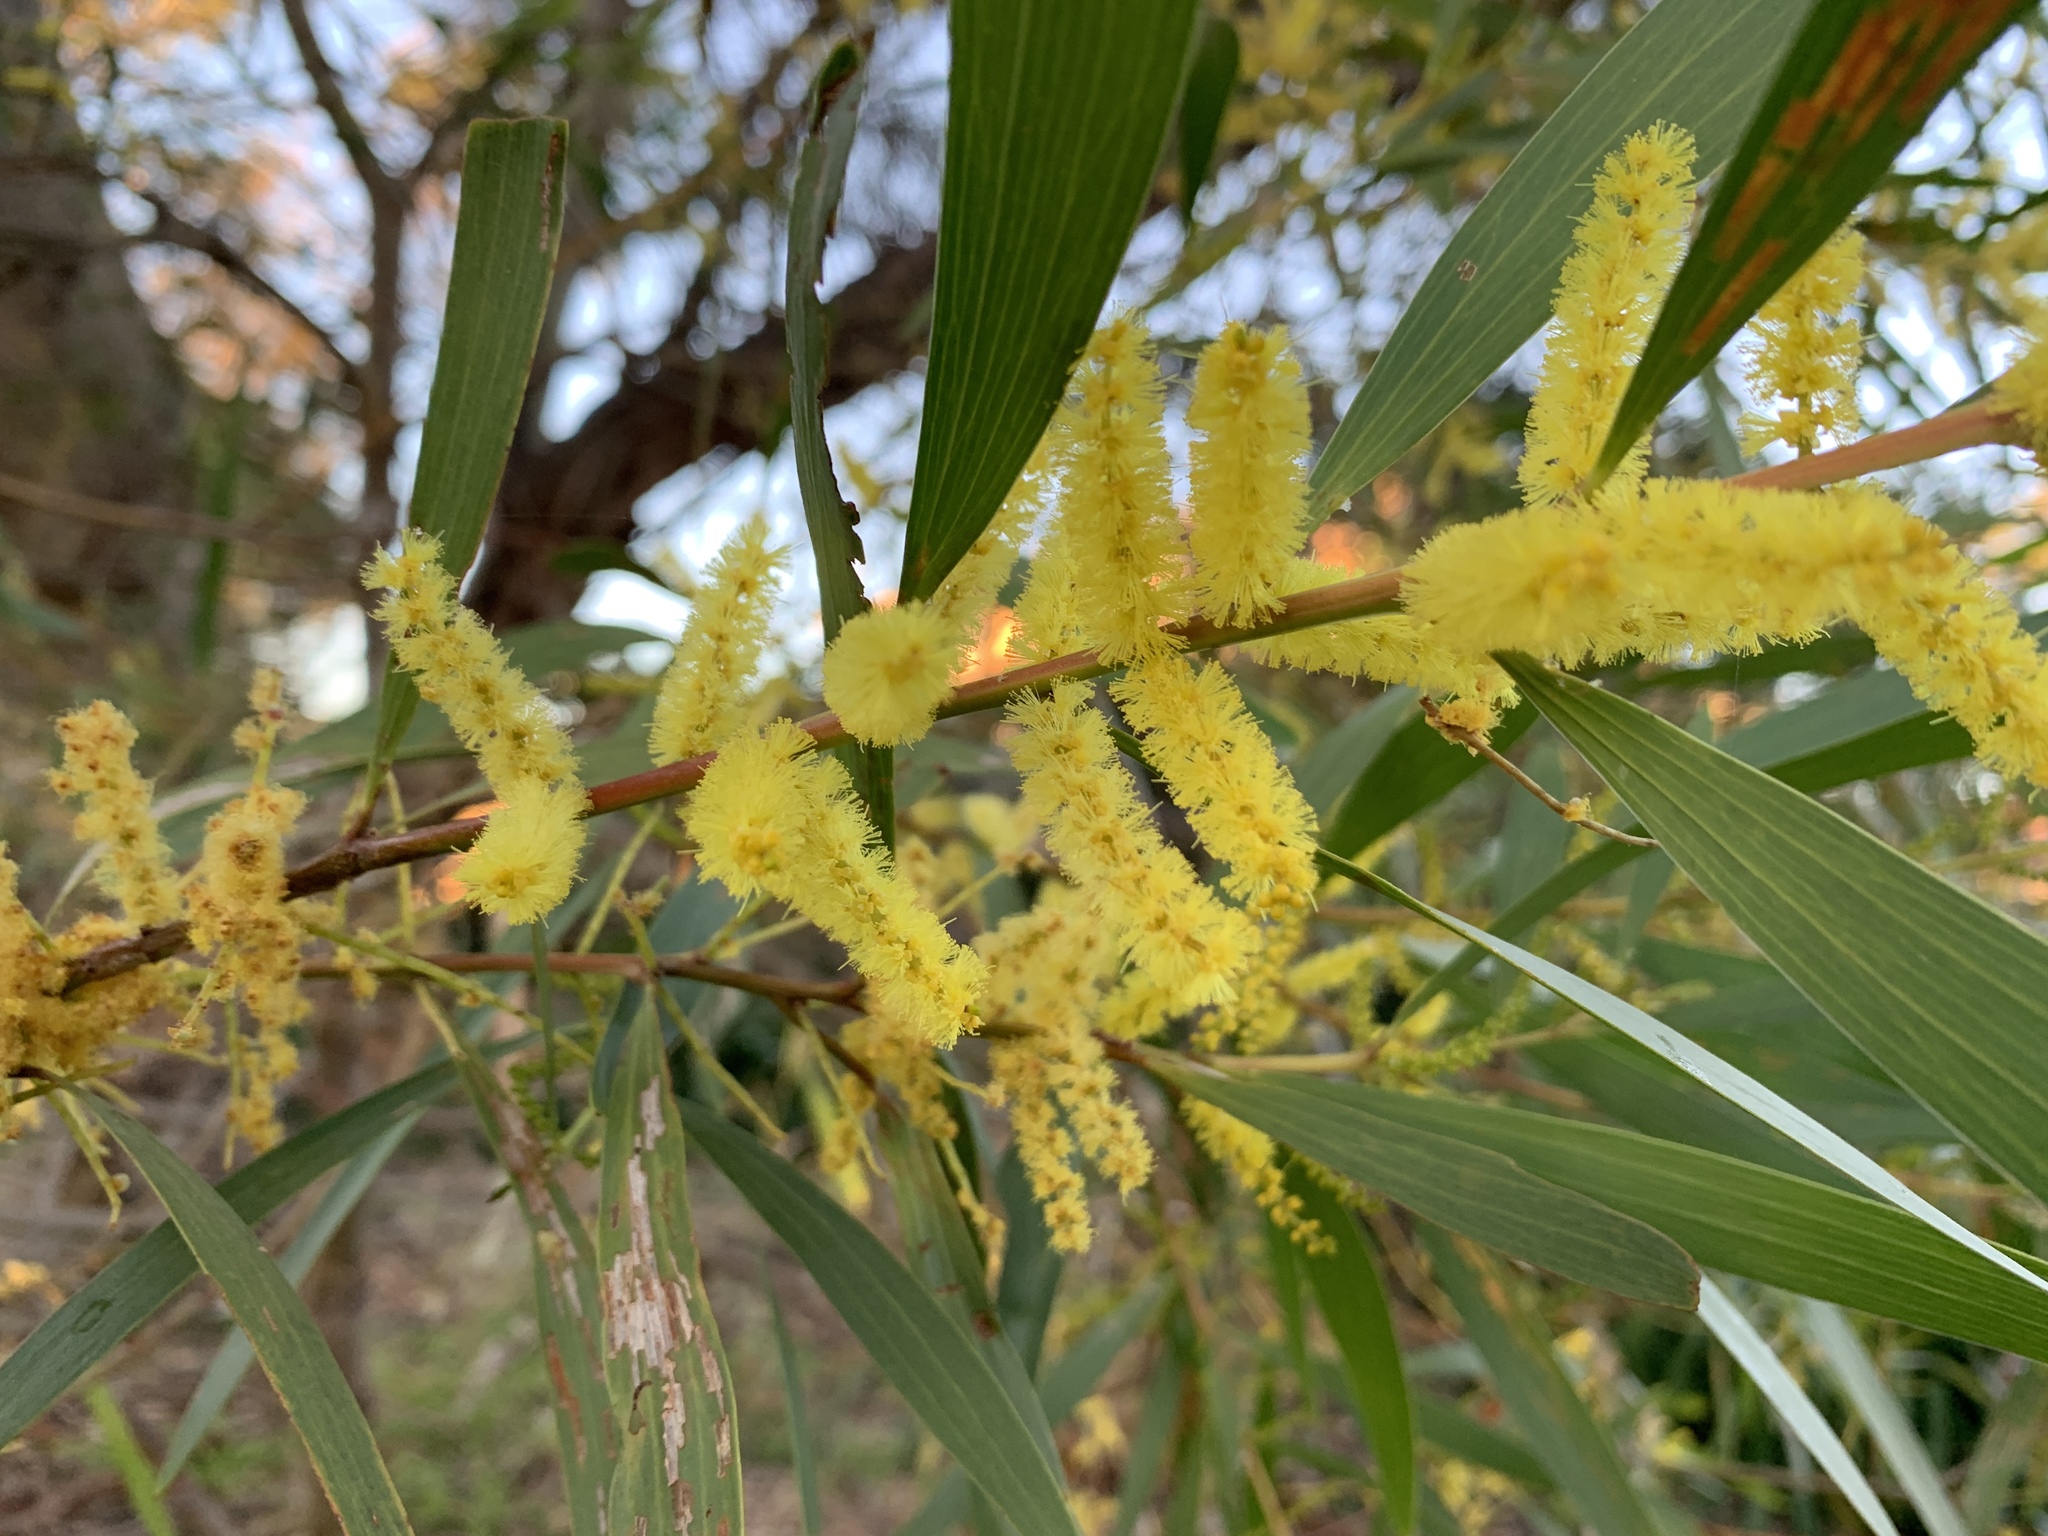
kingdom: Plantae
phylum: Tracheophyta
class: Magnoliopsida
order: Fabales
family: Fabaceae
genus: Acacia
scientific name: Acacia longifolia
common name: Sydney golden wattle
